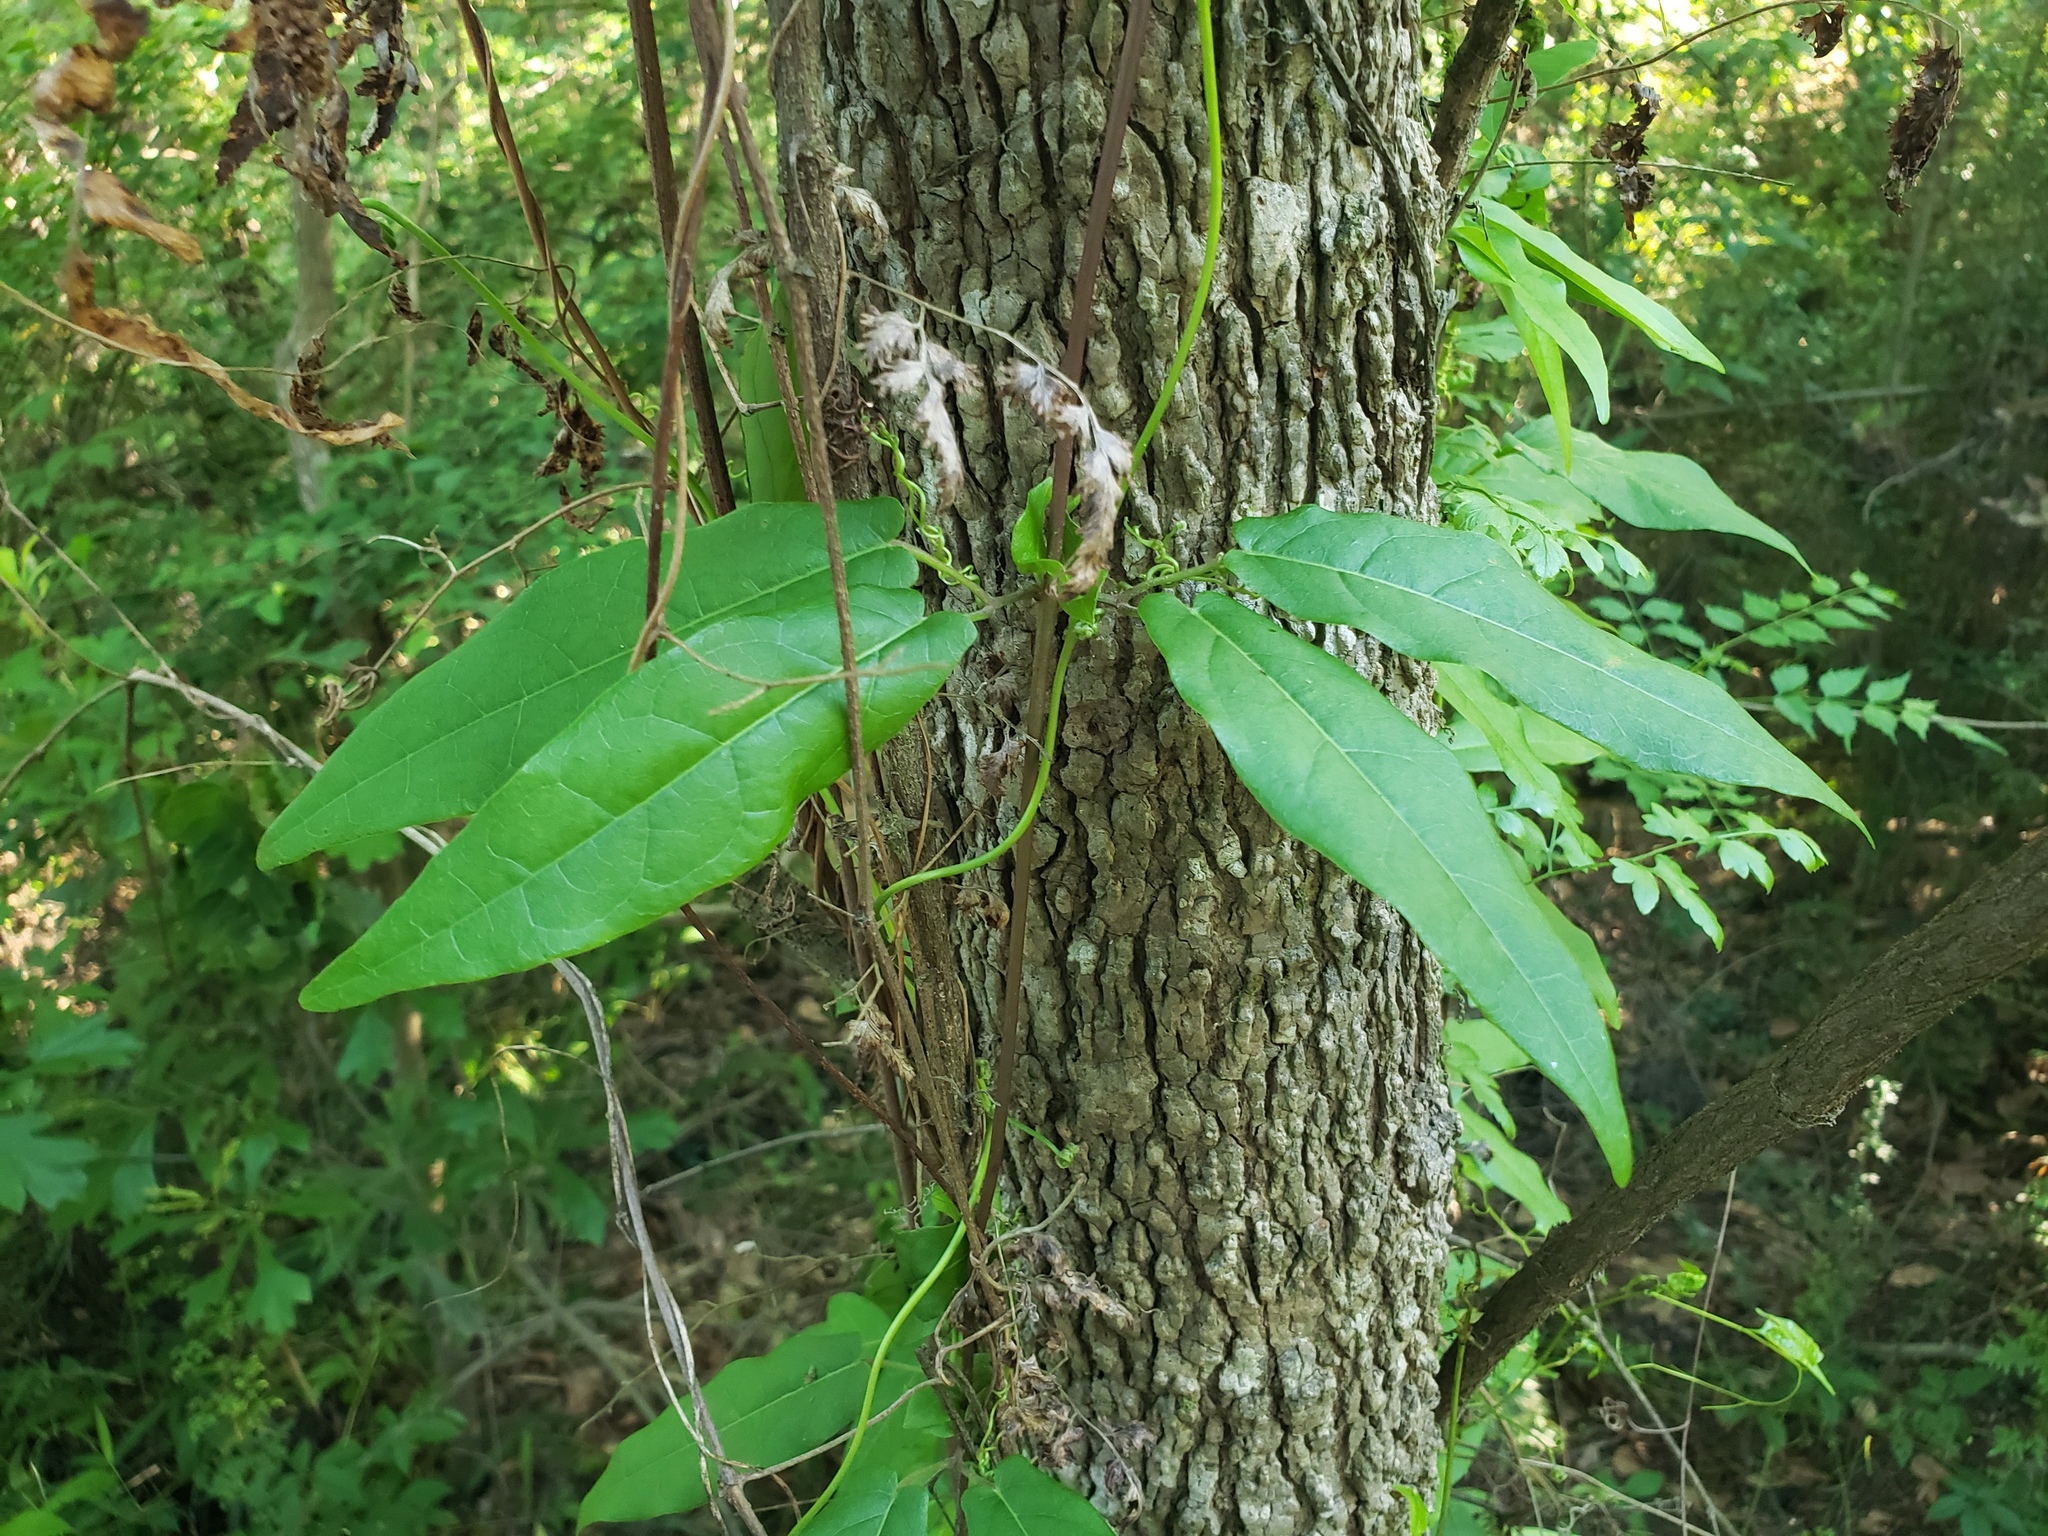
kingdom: Plantae
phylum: Tracheophyta
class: Magnoliopsida
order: Lamiales
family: Bignoniaceae
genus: Bignonia
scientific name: Bignonia capreolata
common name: Crossvine
